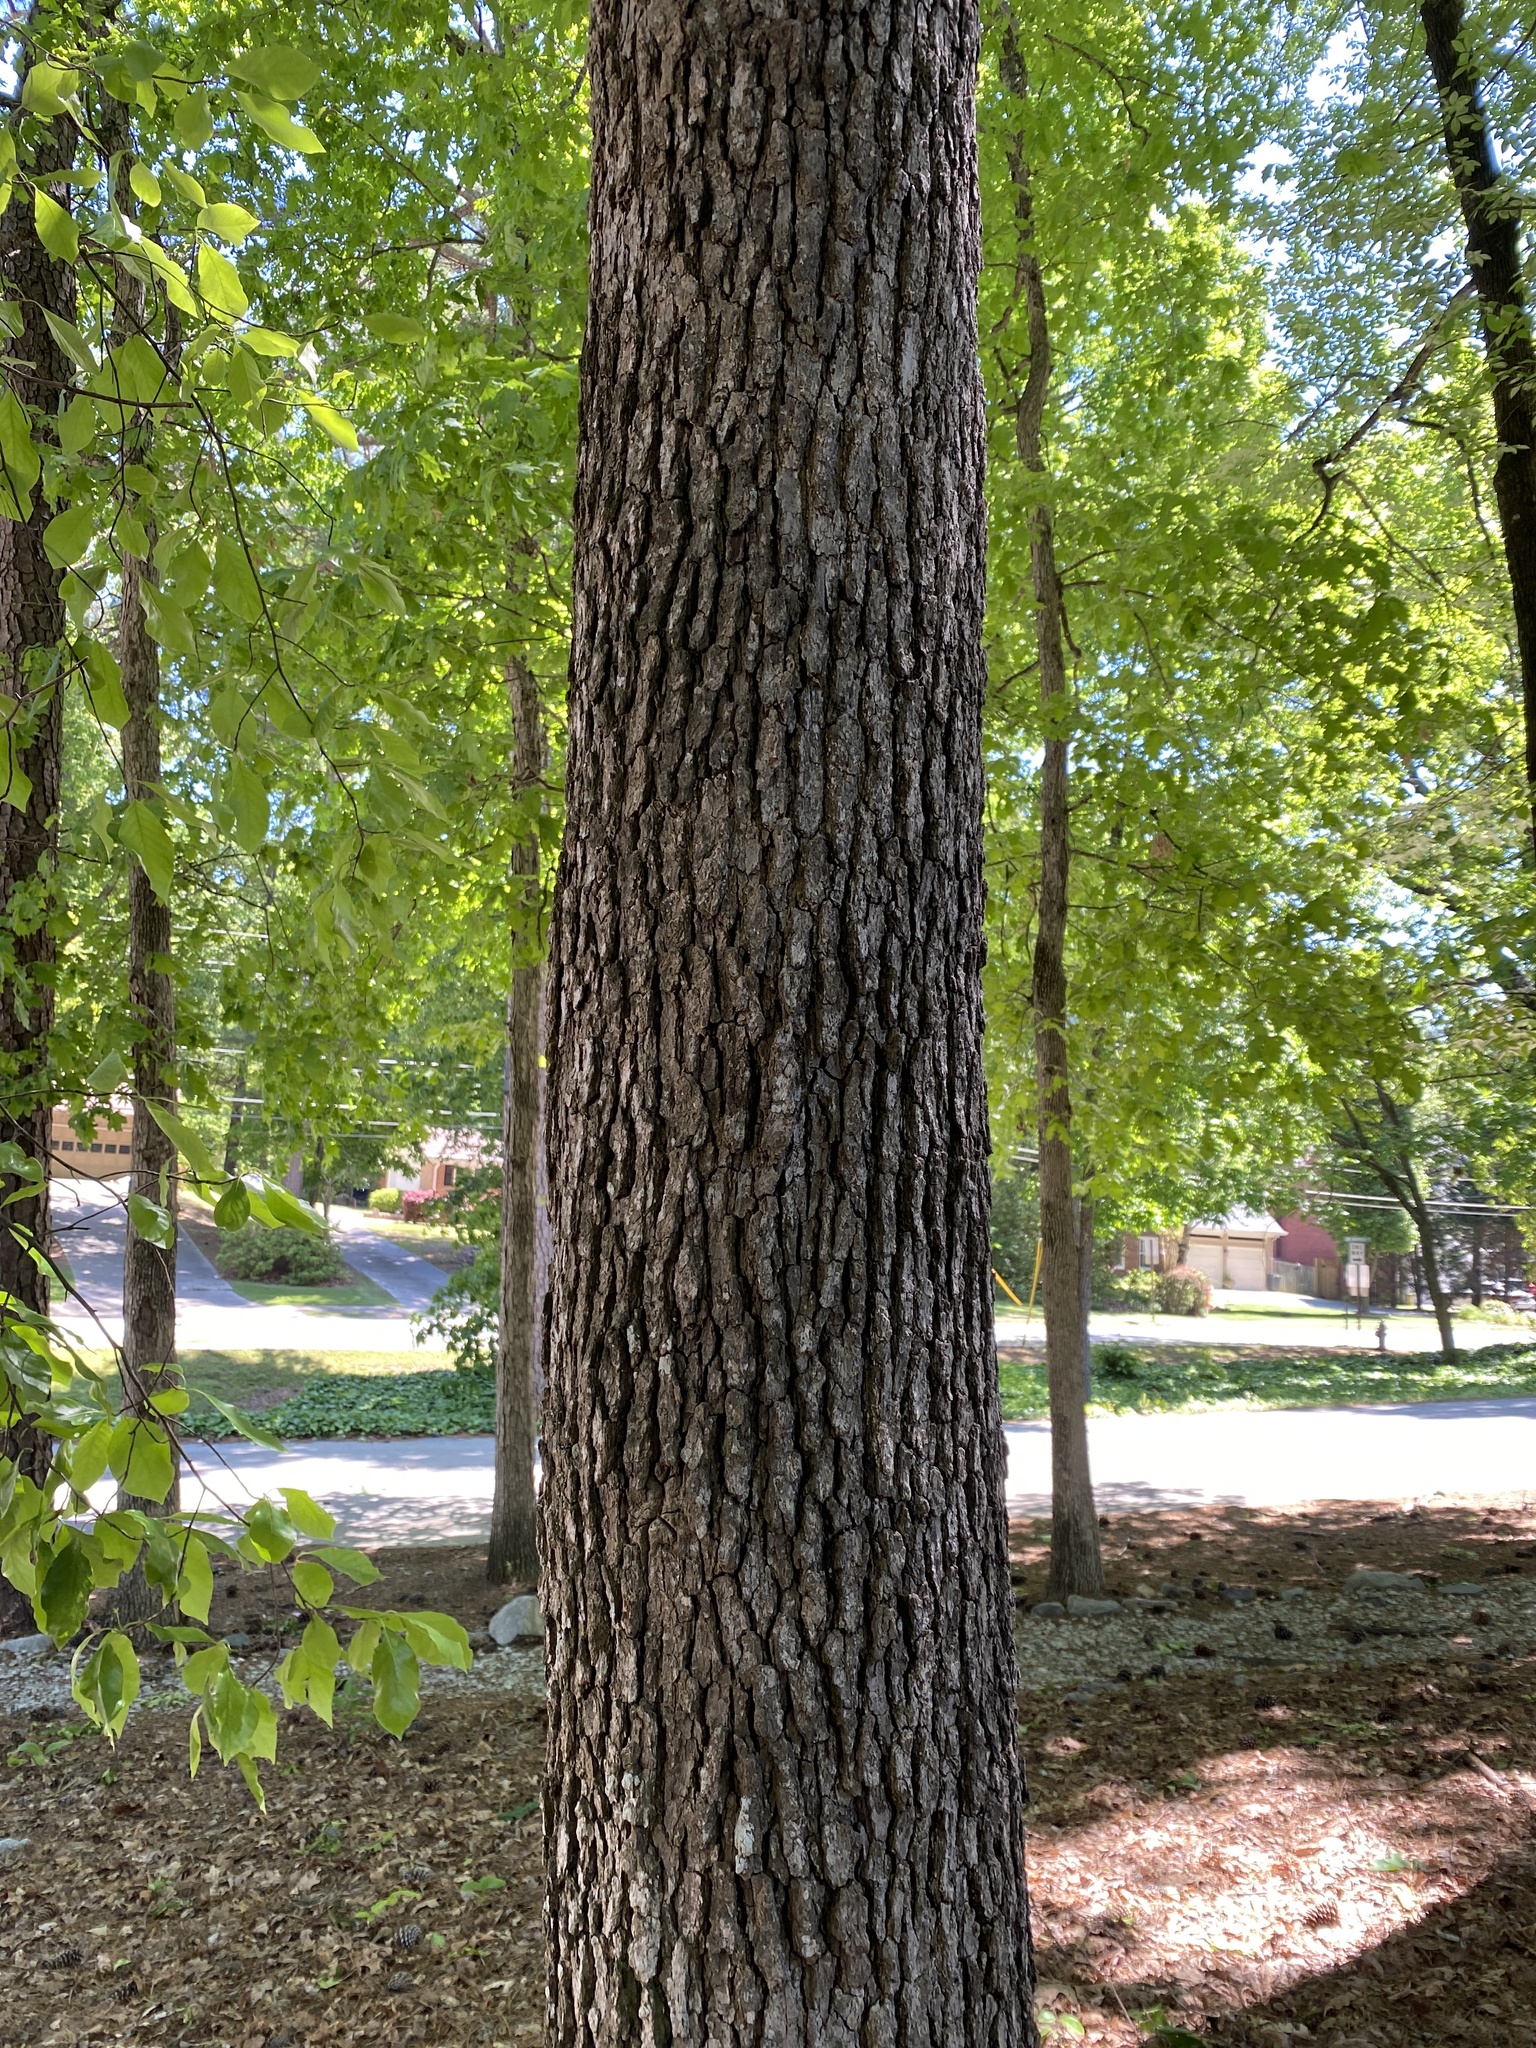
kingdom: Plantae
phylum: Tracheophyta
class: Magnoliopsida
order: Cornales
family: Nyssaceae
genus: Nyssa
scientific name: Nyssa sylvatica
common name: Black tupelo
